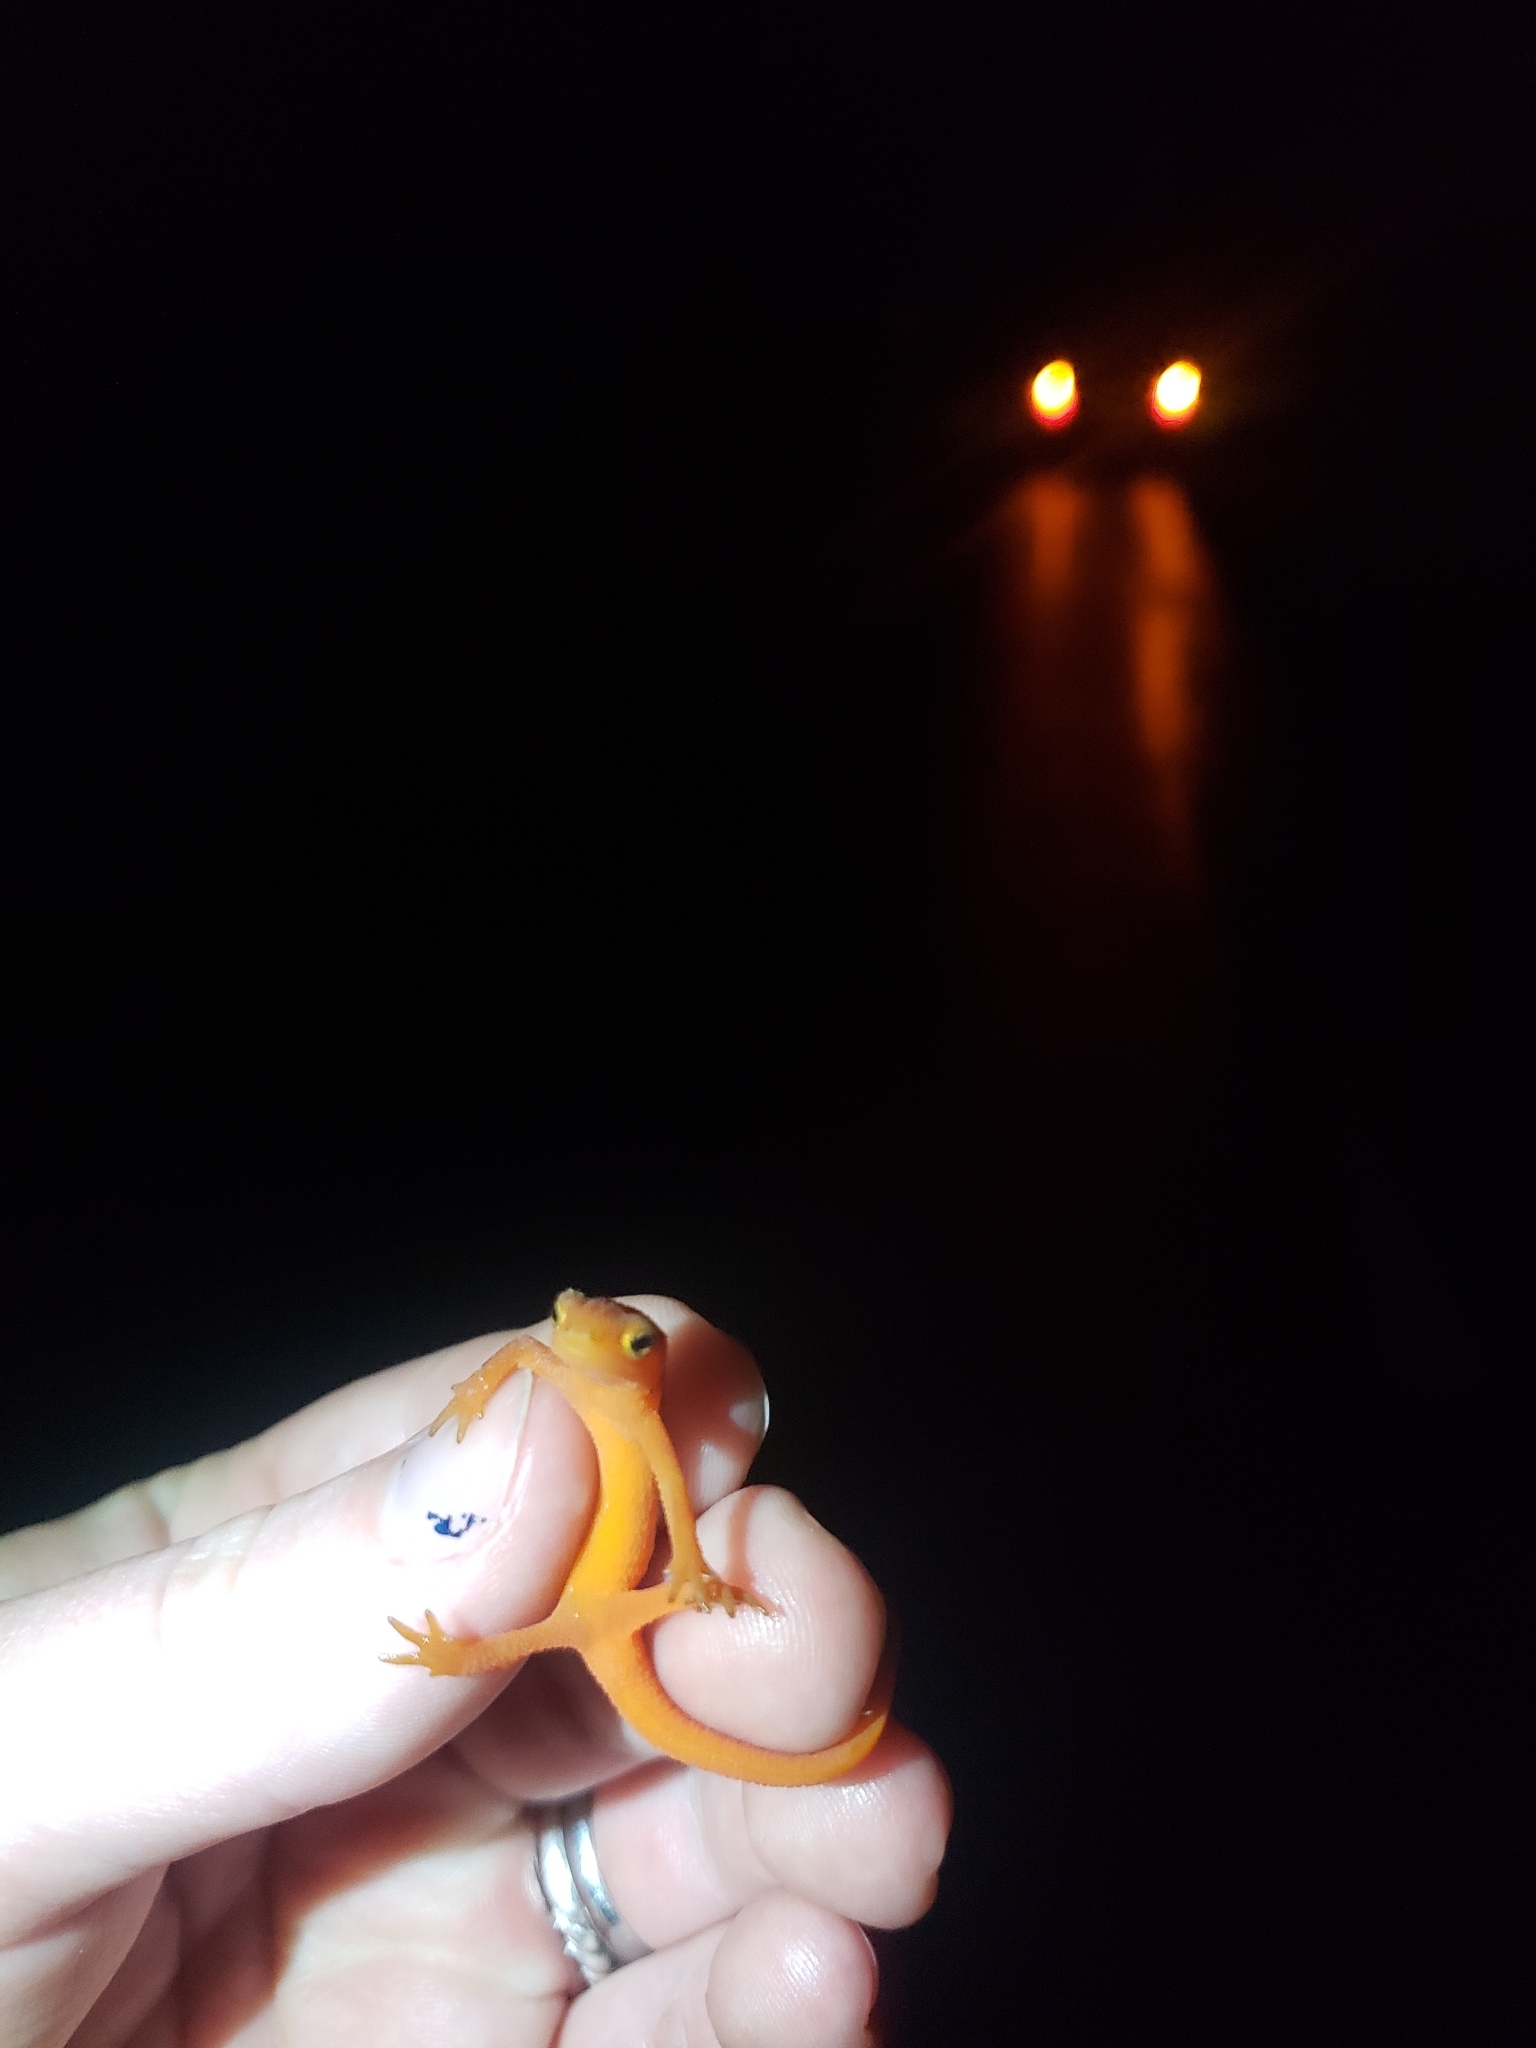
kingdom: Animalia
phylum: Chordata
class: Amphibia
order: Caudata
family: Salamandridae
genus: Notophthalmus
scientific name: Notophthalmus viridescens
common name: Eastern newt
